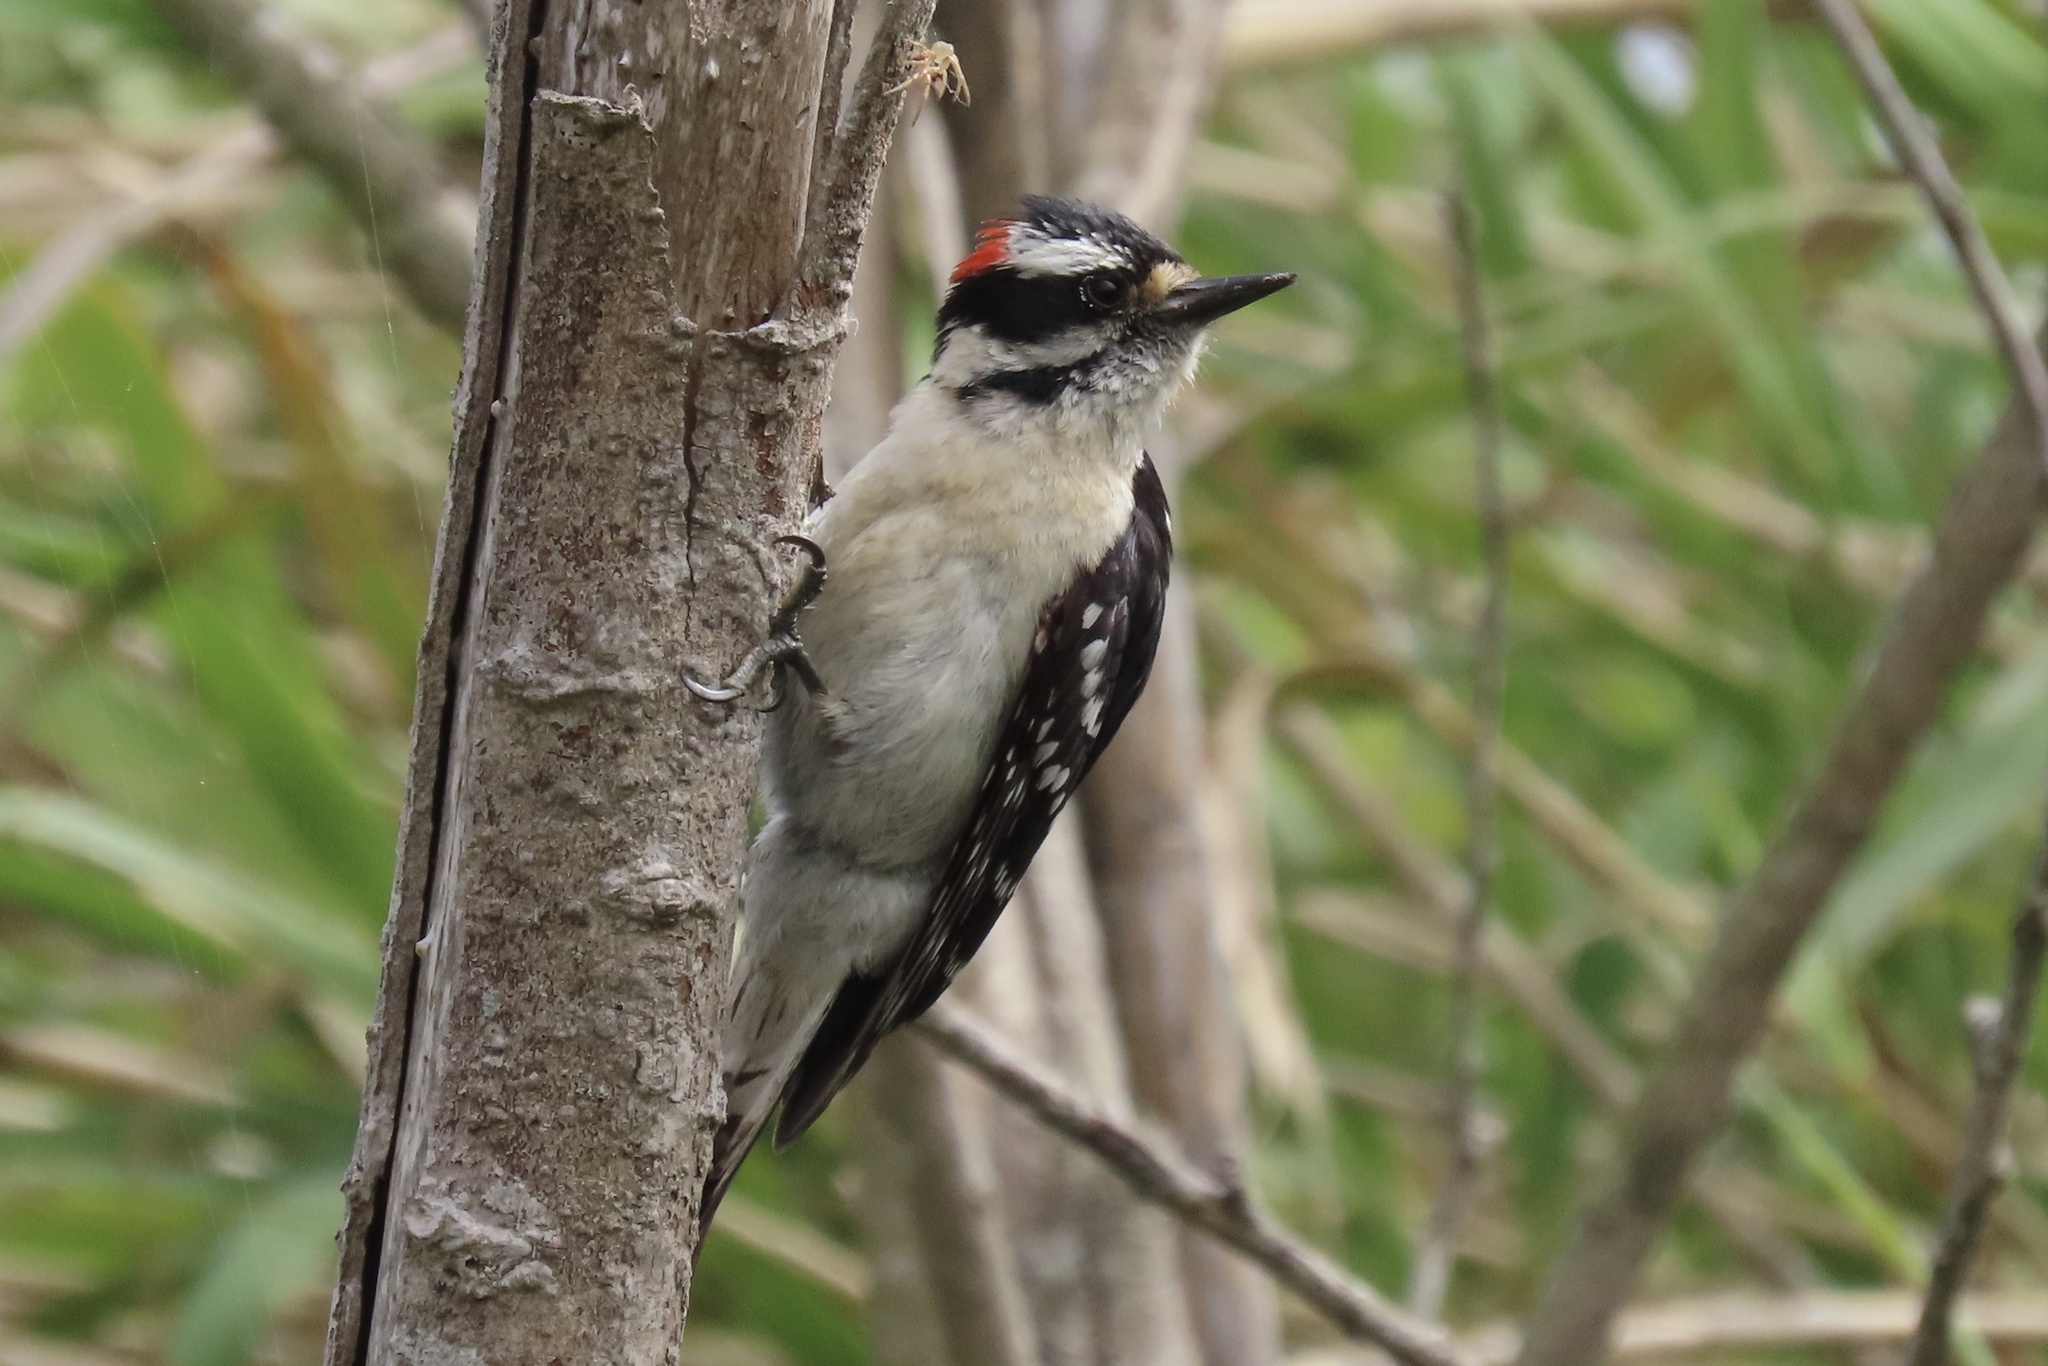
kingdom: Animalia
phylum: Chordata
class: Aves
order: Piciformes
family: Picidae
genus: Dryobates
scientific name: Dryobates pubescens
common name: Downy woodpecker
